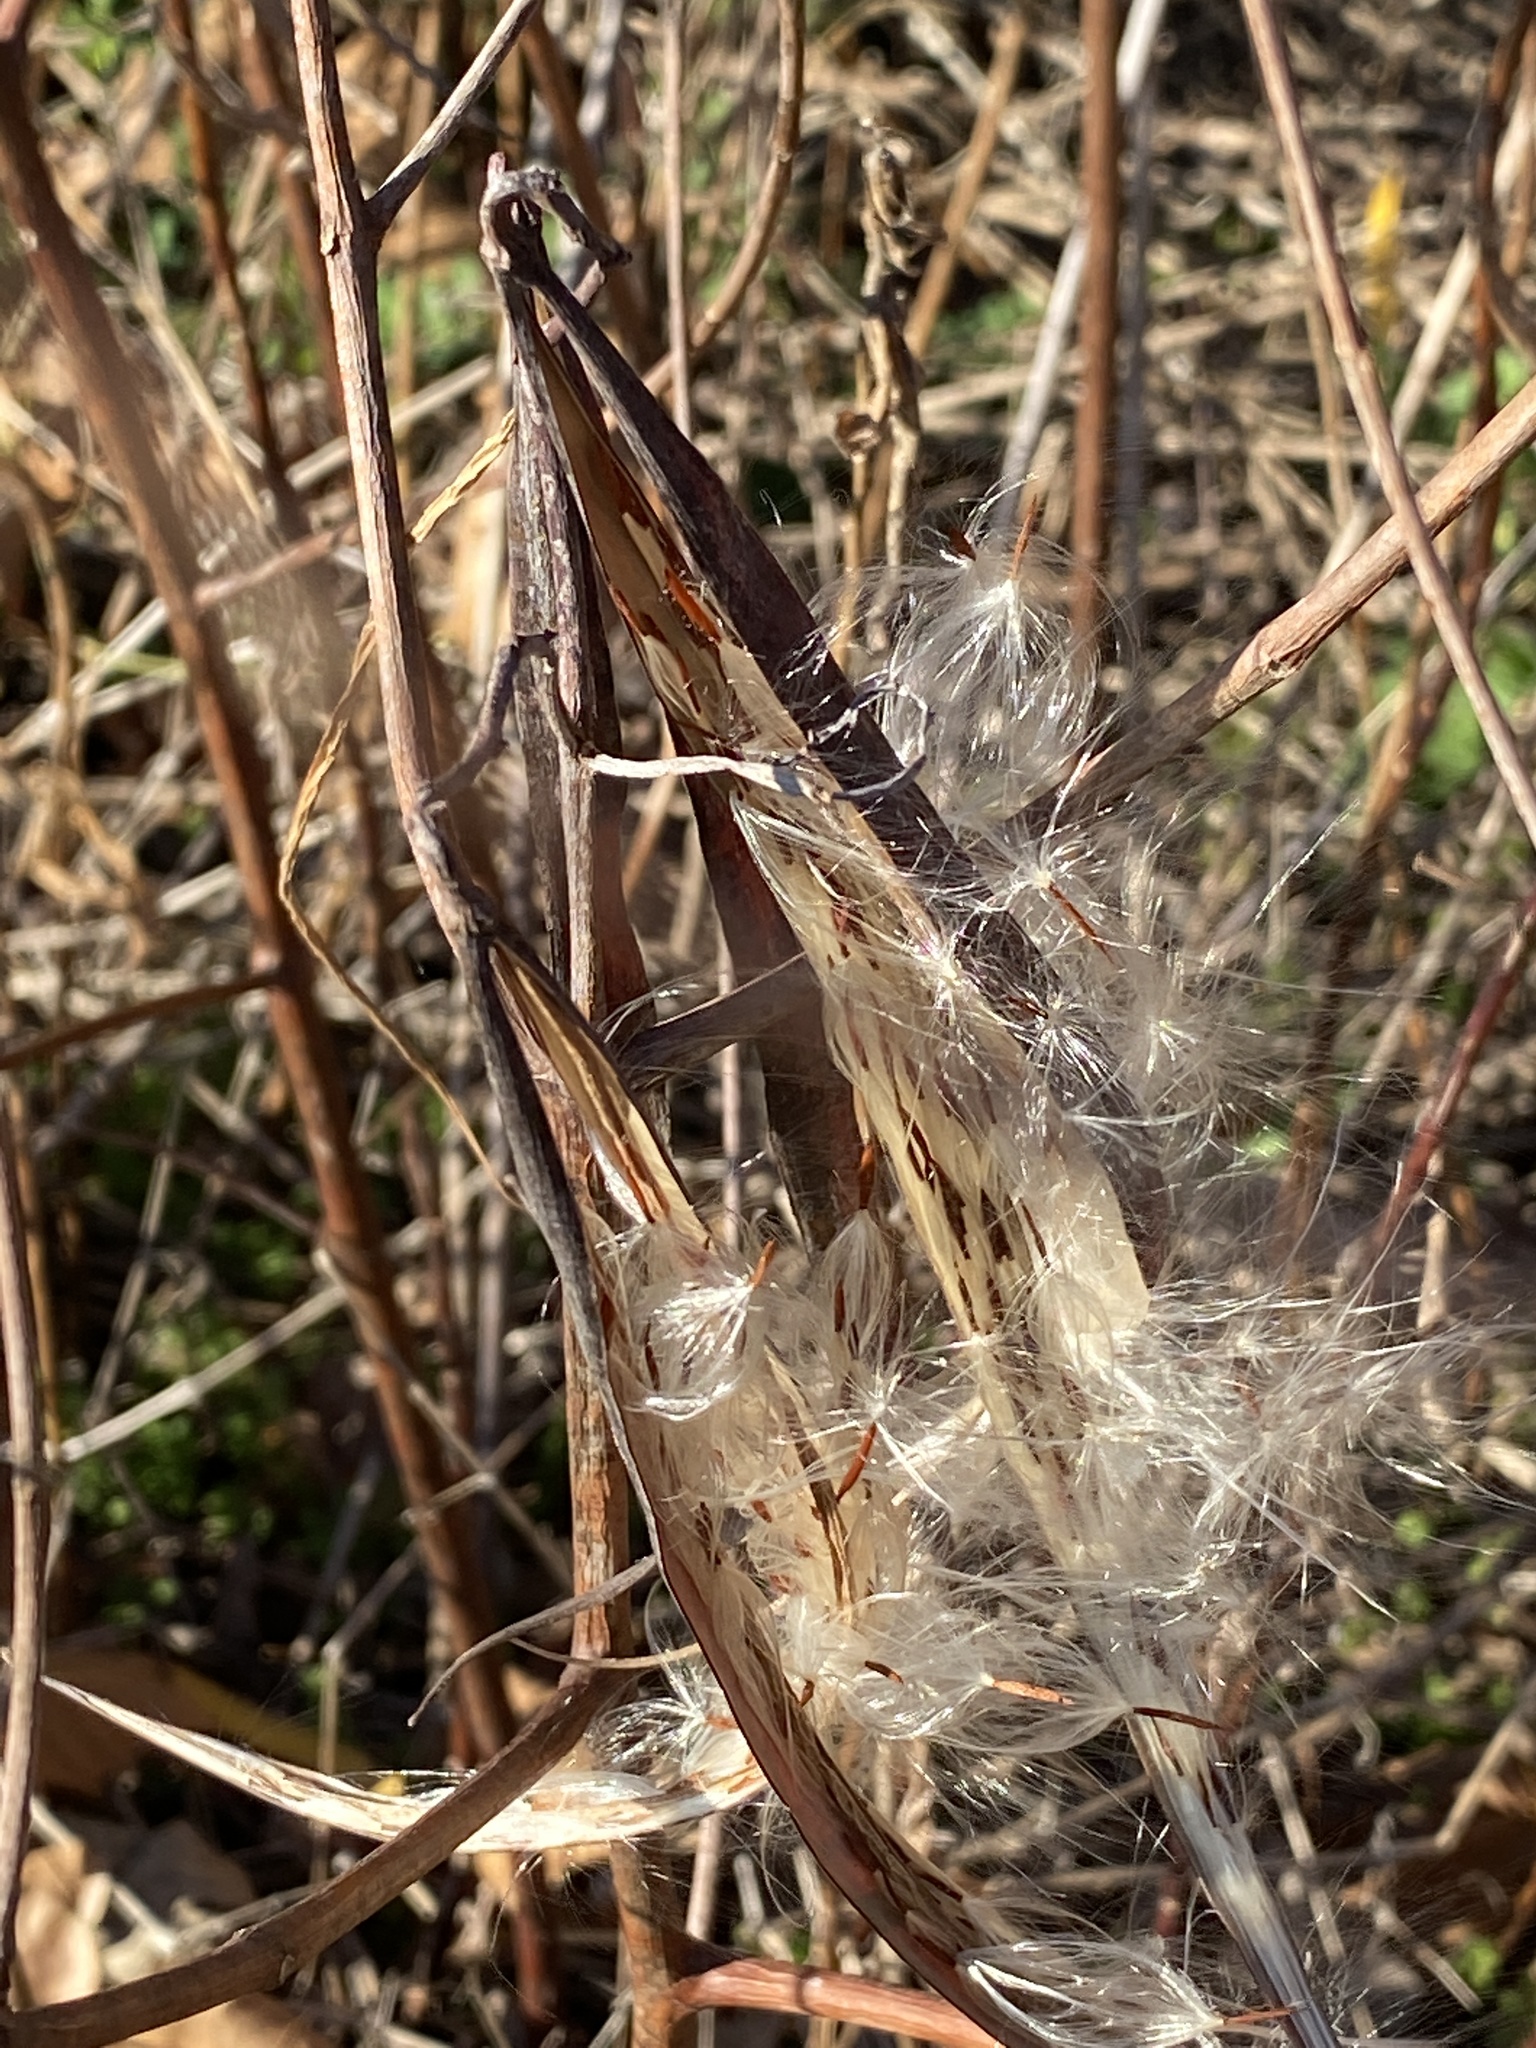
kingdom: Plantae
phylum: Tracheophyta
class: Magnoliopsida
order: Gentianales
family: Apocynaceae
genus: Apocynum
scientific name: Apocynum cannabinum
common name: Hemp dogbane
